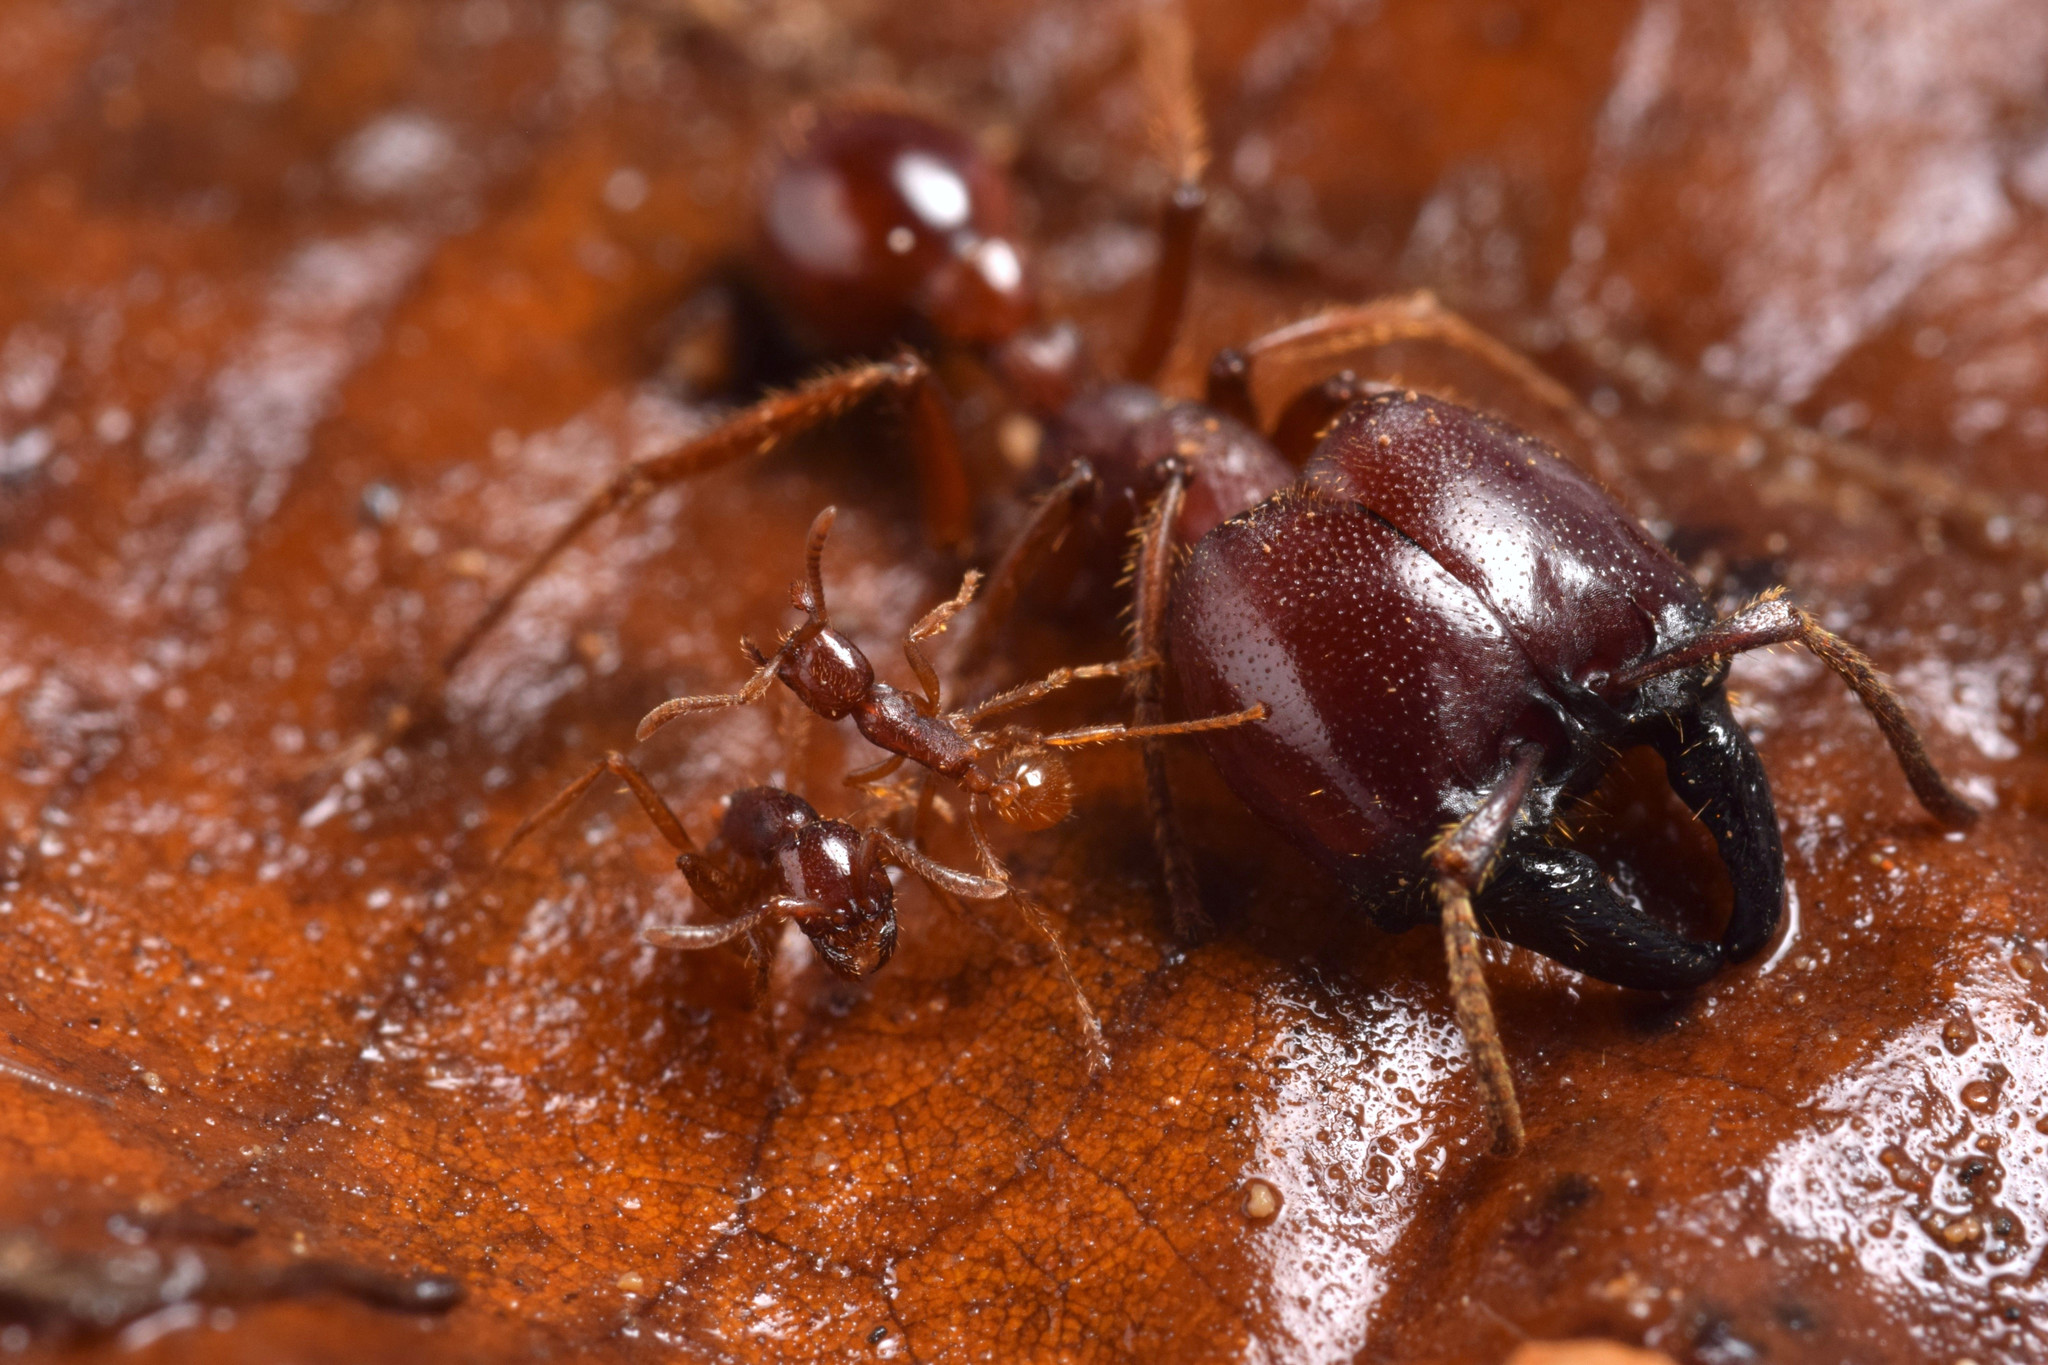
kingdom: Animalia
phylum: Arthropoda
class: Insecta
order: Hymenoptera
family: Formicidae
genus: Labidus
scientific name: Labidus coecus
